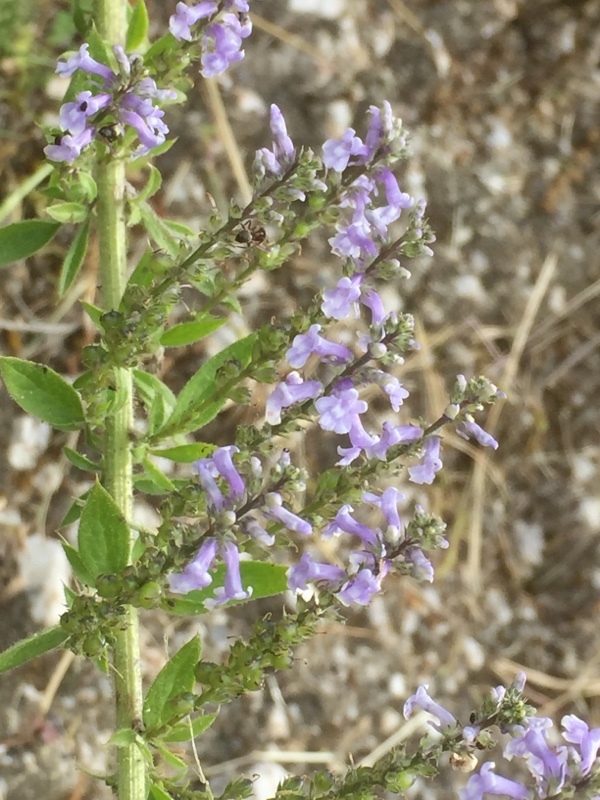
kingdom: Plantae
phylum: Tracheophyta
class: Magnoliopsida
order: Lamiales
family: Plantaginaceae
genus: Anarrhinum
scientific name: Anarrhinum bellidifolium
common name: Daisy-leaved toadflax
